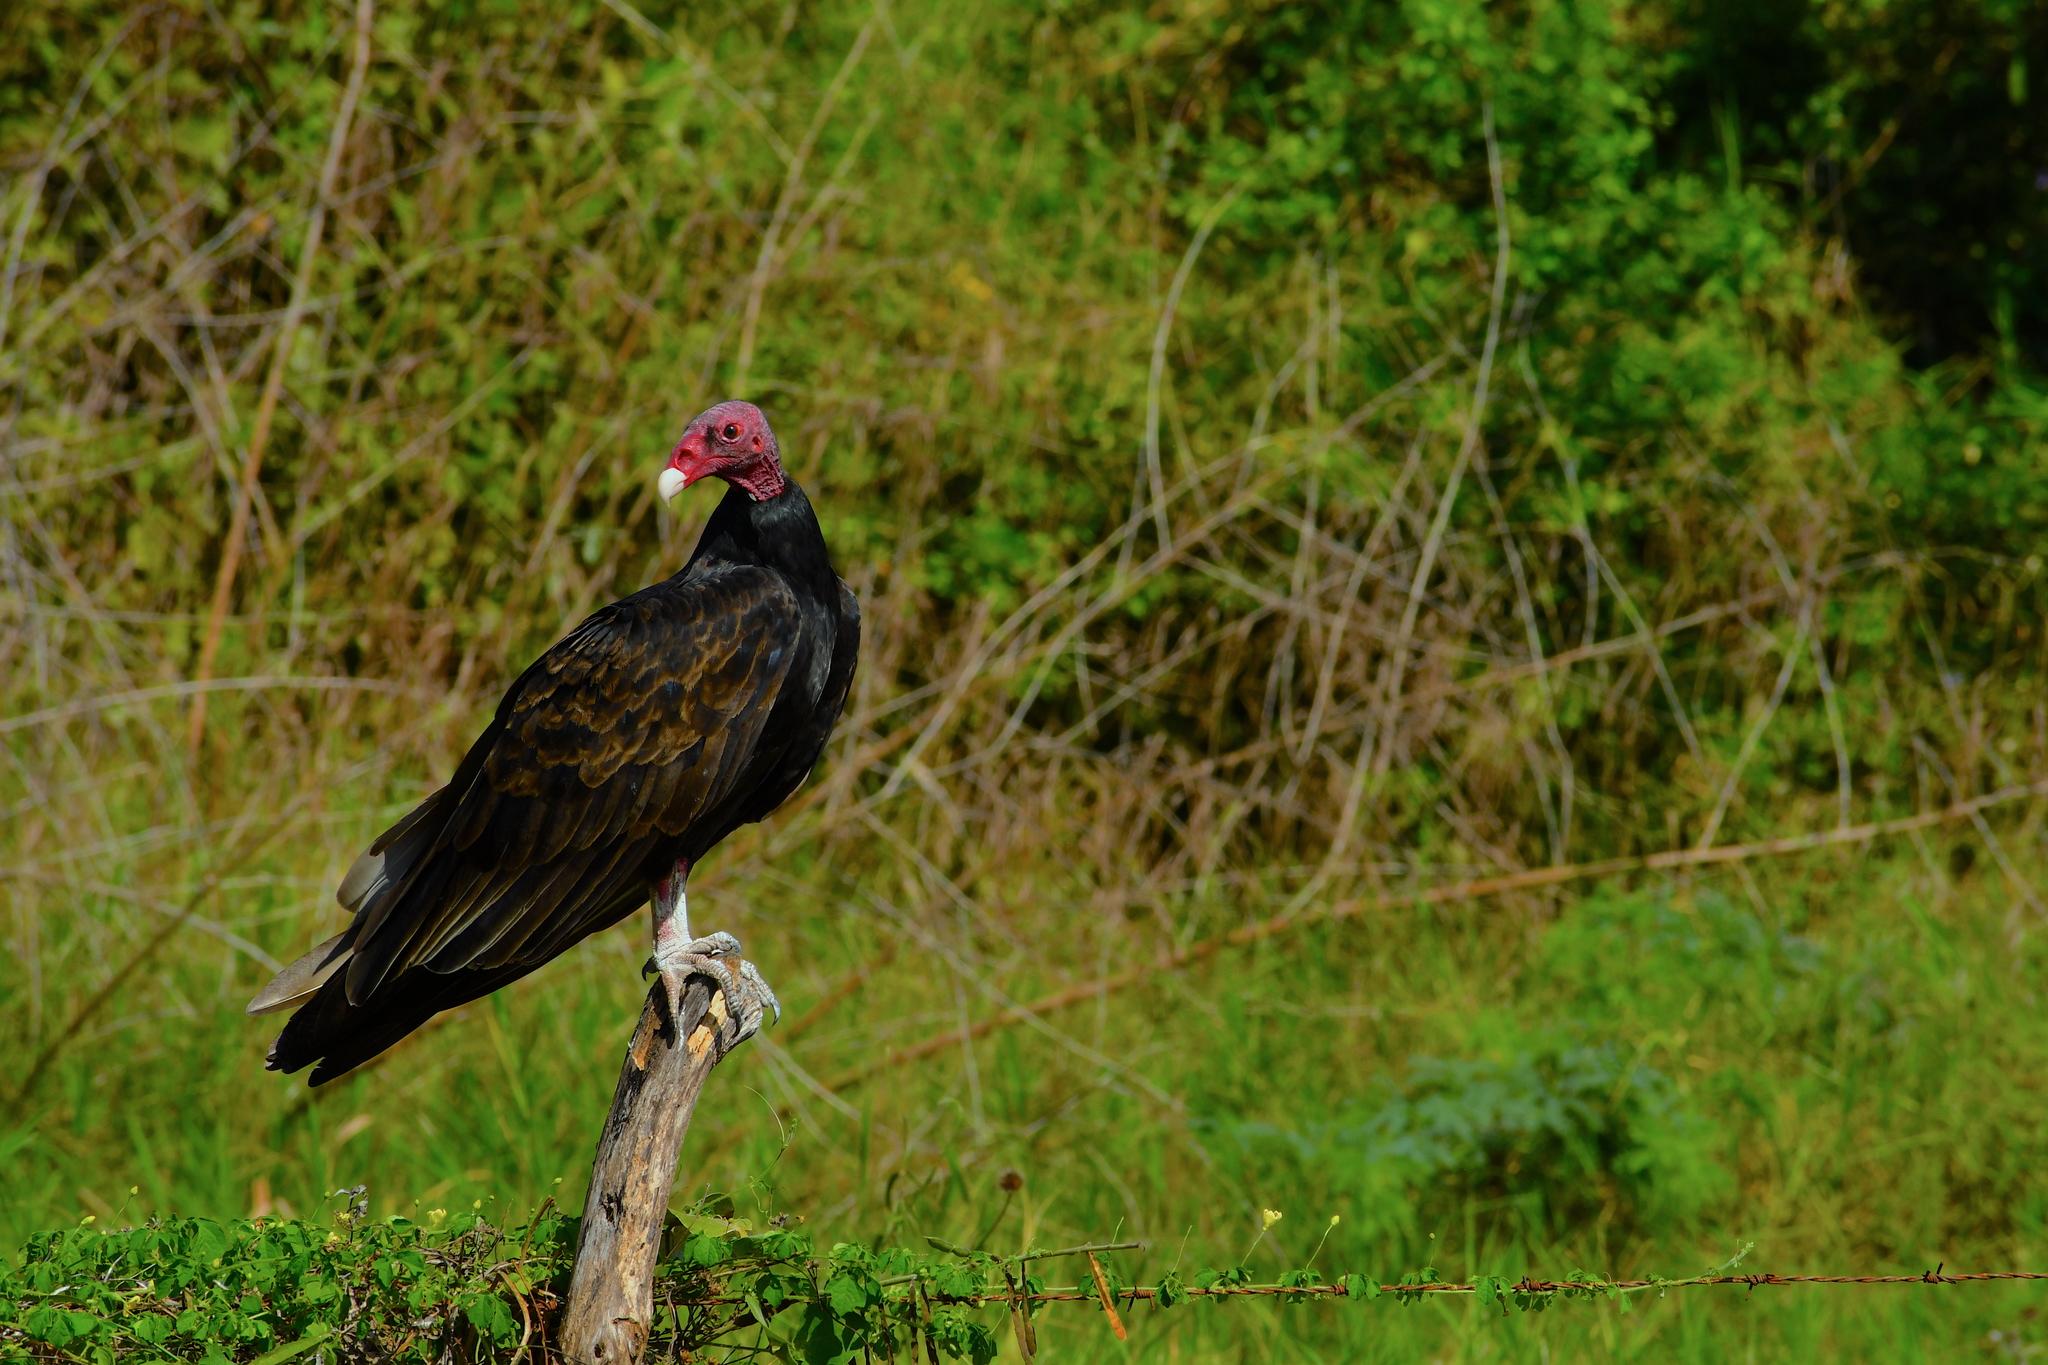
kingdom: Animalia
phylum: Chordata
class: Aves
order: Accipitriformes
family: Cathartidae
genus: Cathartes
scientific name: Cathartes aura
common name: Turkey vulture
